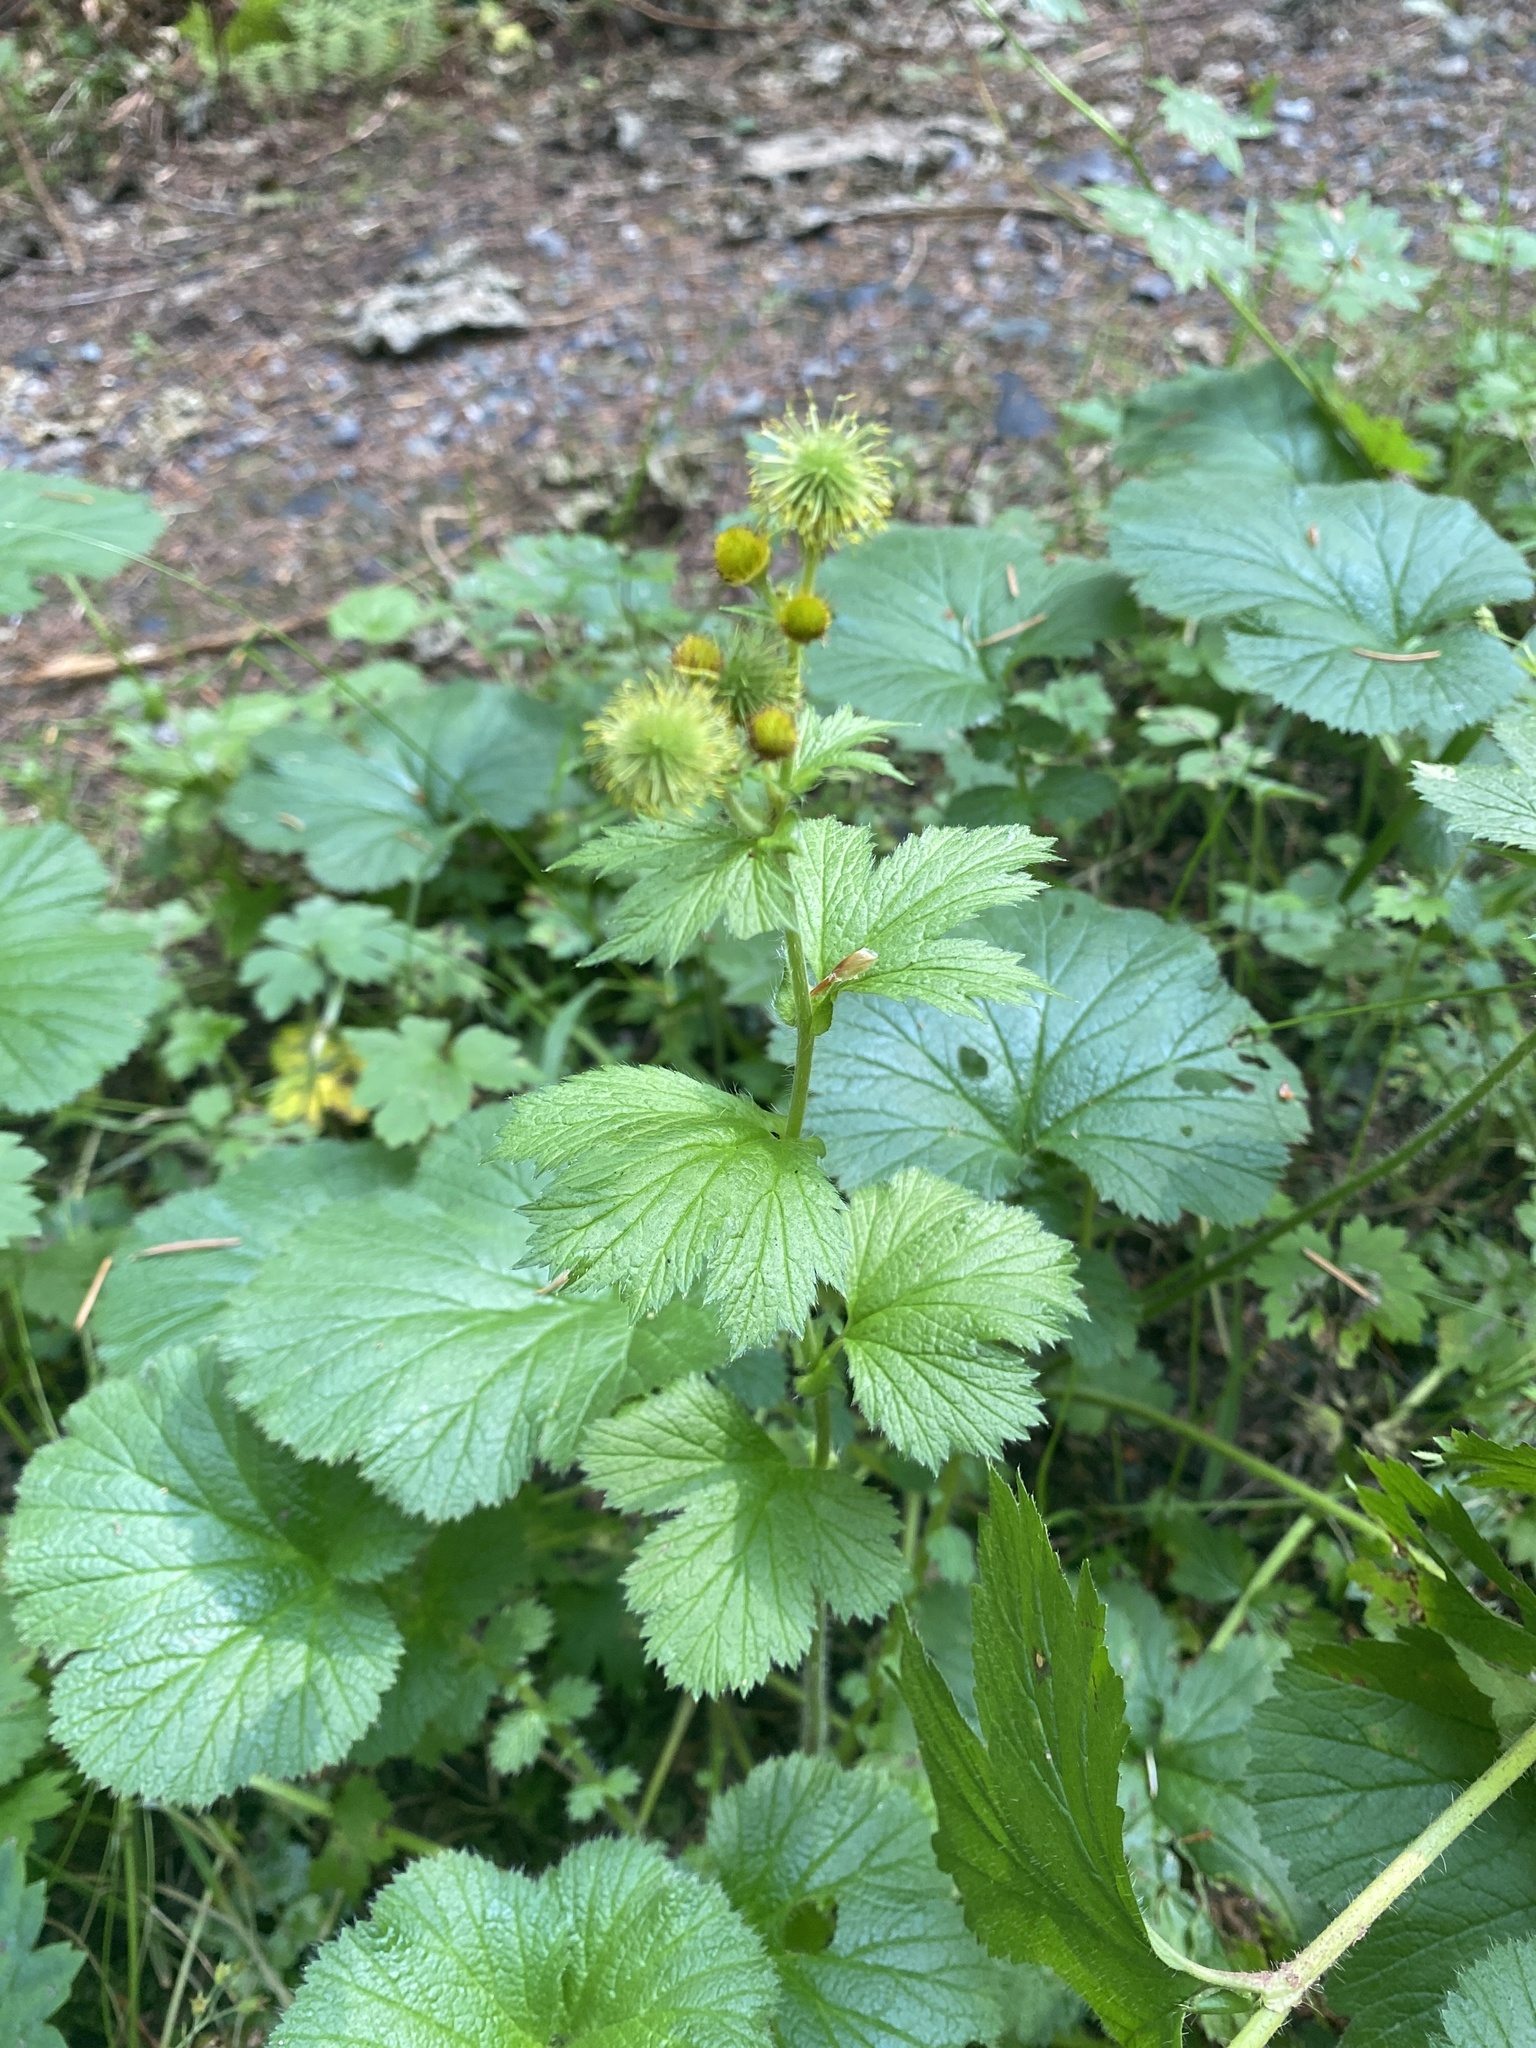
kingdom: Plantae
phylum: Tracheophyta
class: Magnoliopsida
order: Rosales
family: Rosaceae
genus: Geum
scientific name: Geum macrophyllum
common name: Large-leaved avens
